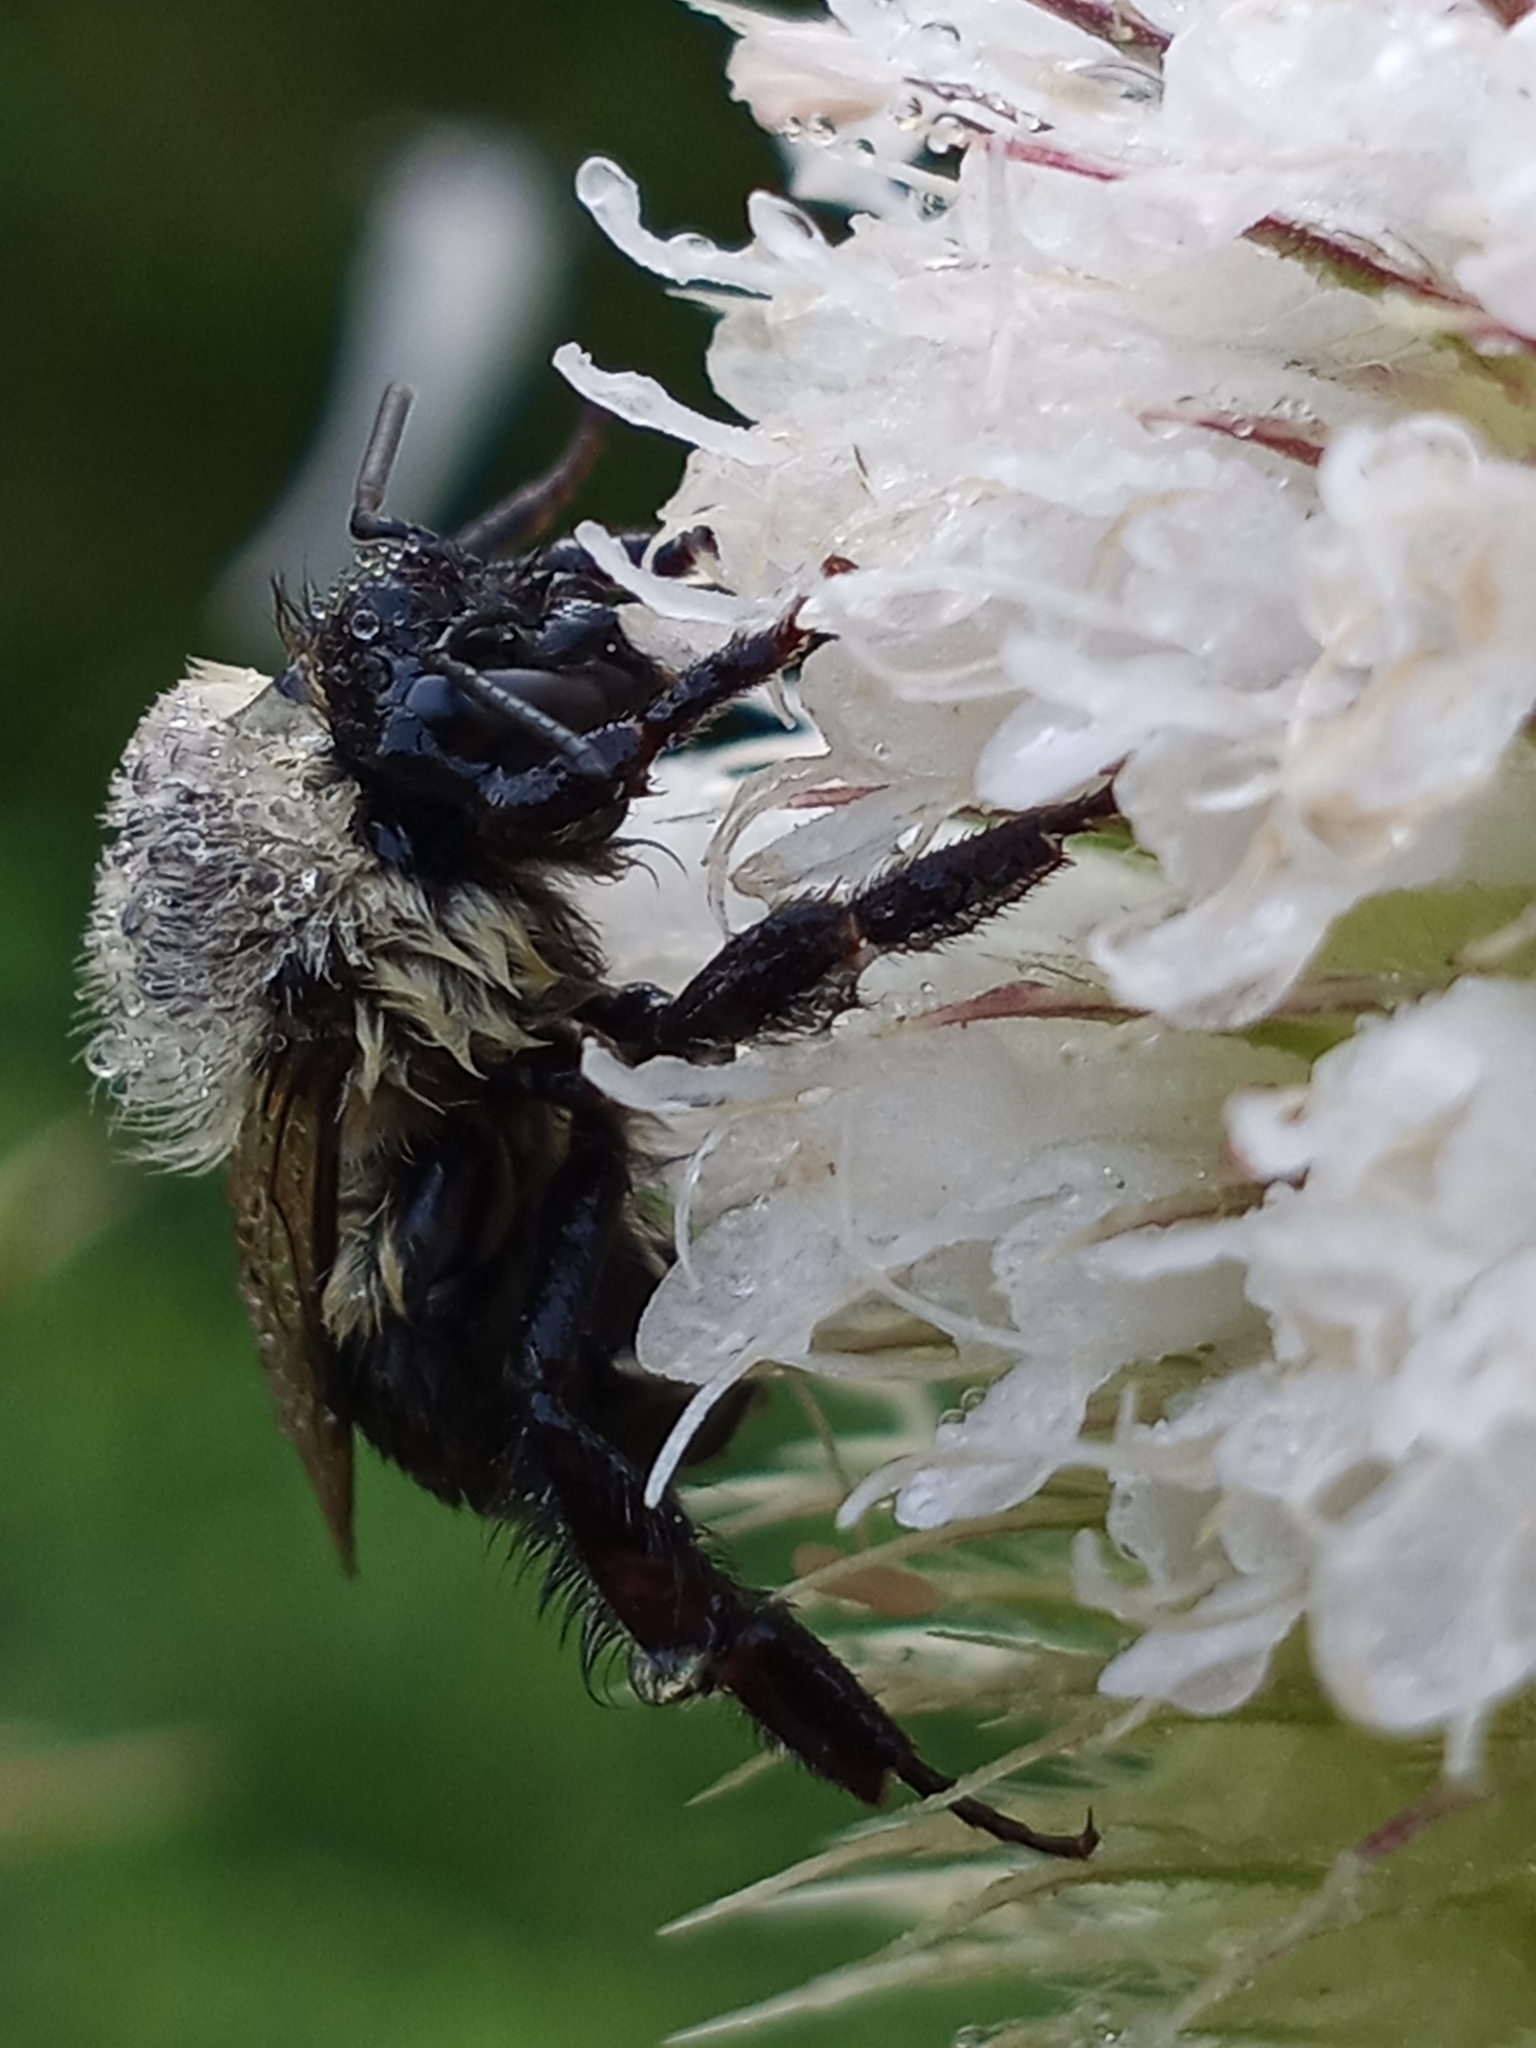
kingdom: Animalia
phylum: Arthropoda
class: Insecta
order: Hymenoptera
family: Apidae
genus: Bombus
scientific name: Bombus impatiens
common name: Common eastern bumble bee
